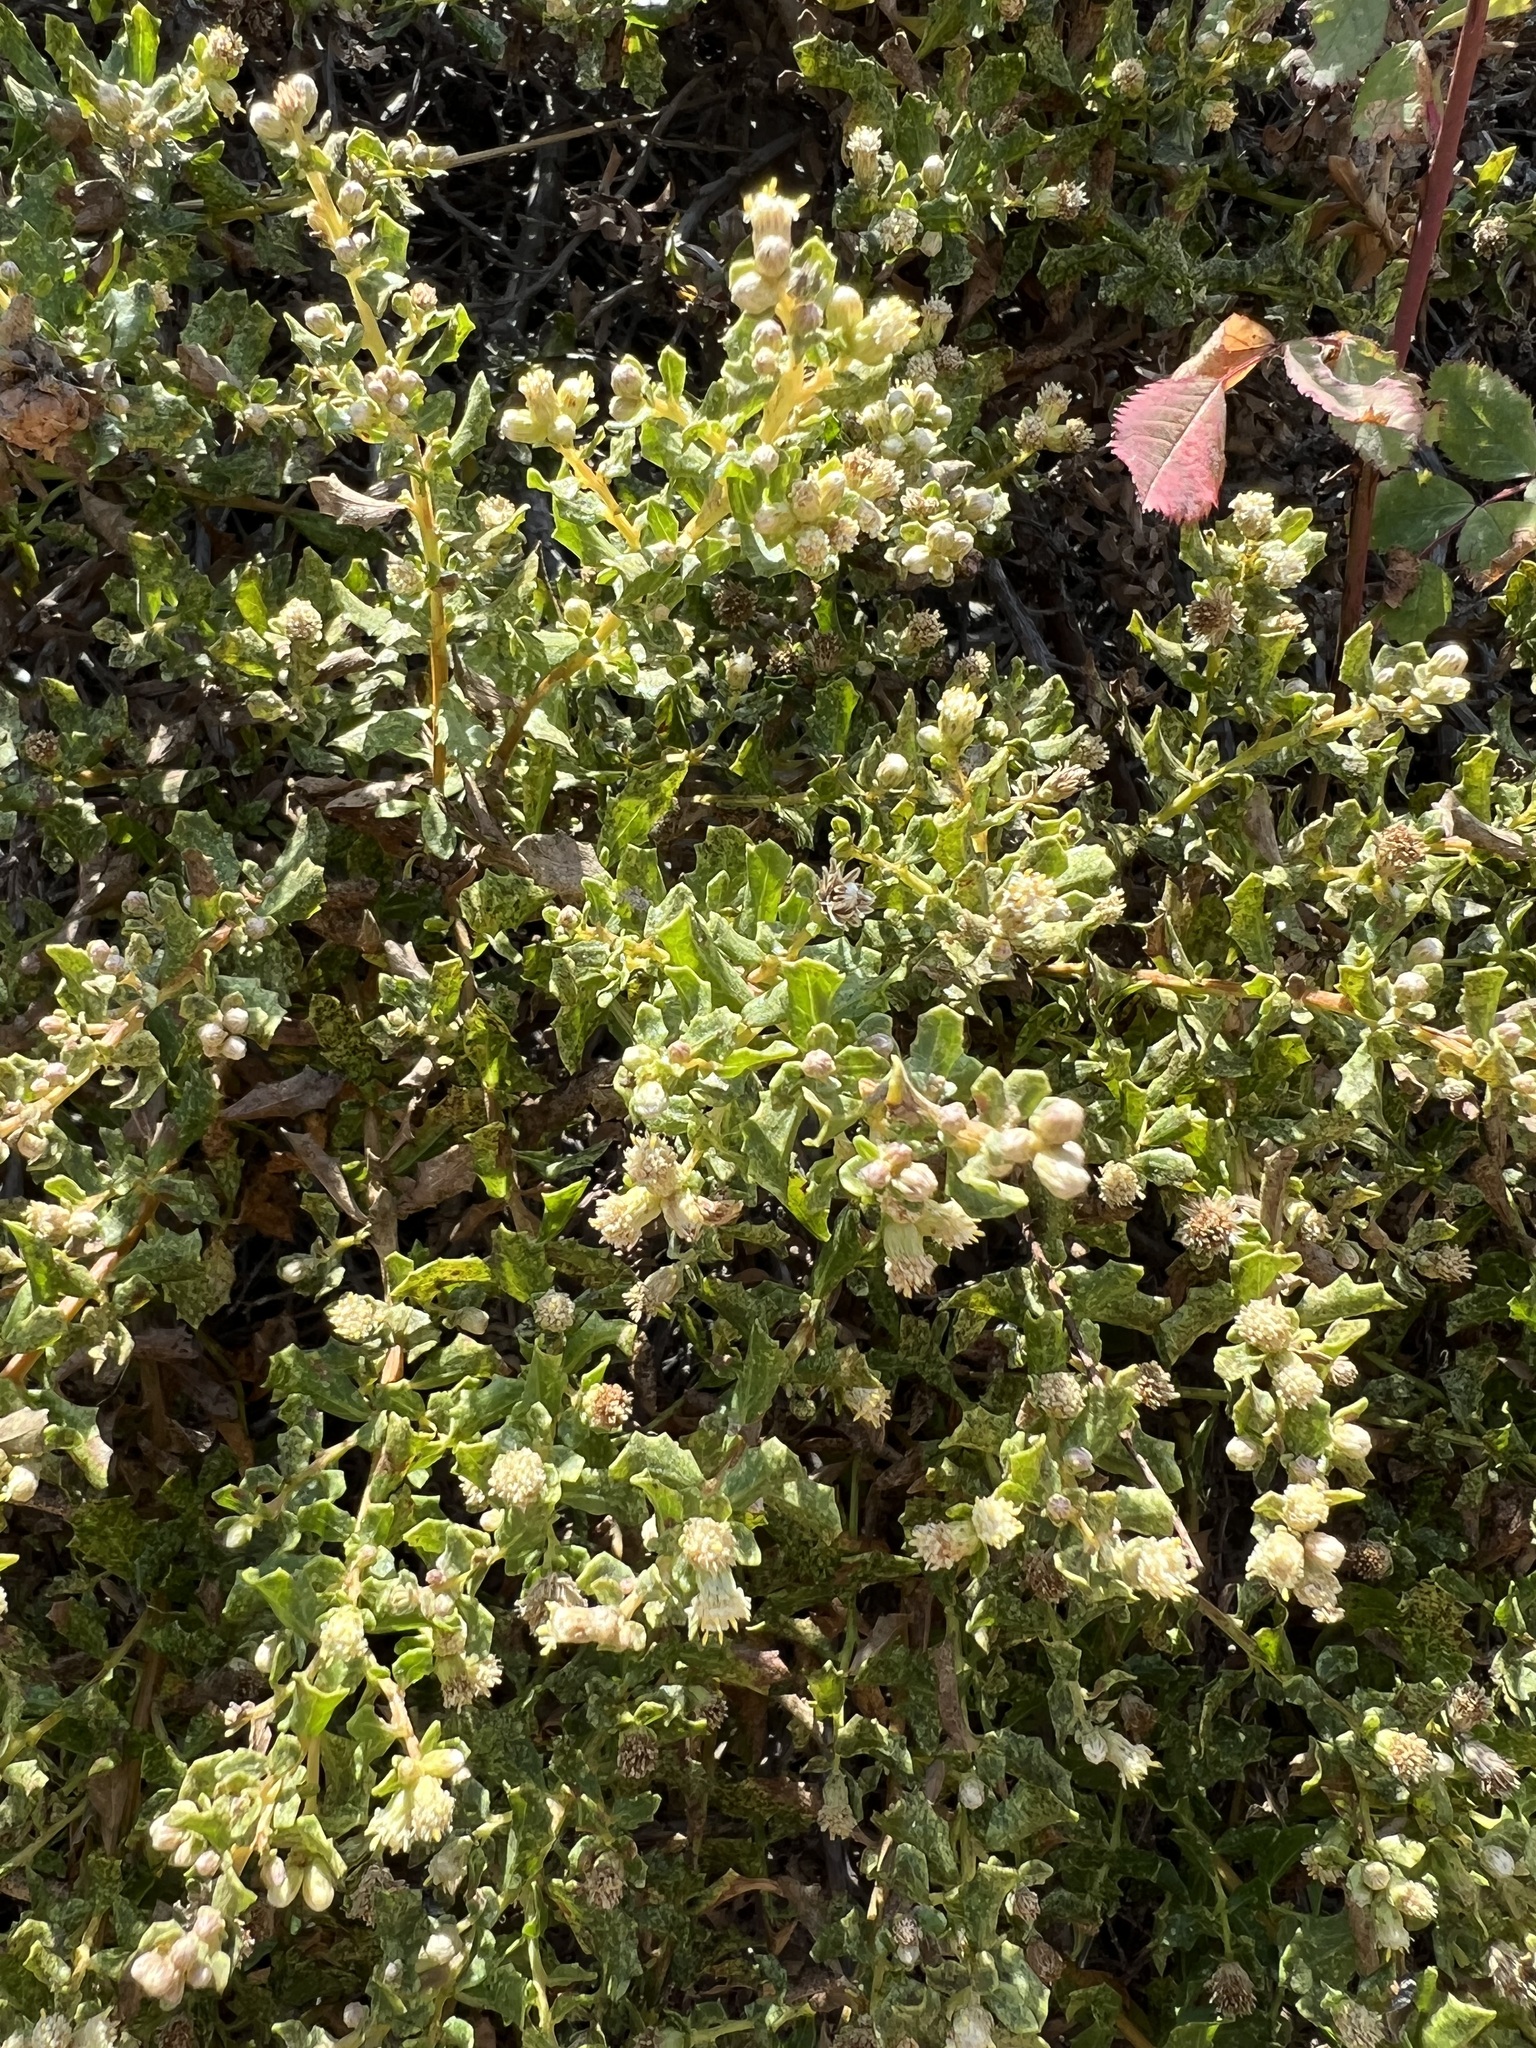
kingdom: Plantae
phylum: Tracheophyta
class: Magnoliopsida
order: Asterales
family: Asteraceae
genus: Baccharis
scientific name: Baccharis pilularis
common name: Coyotebrush
